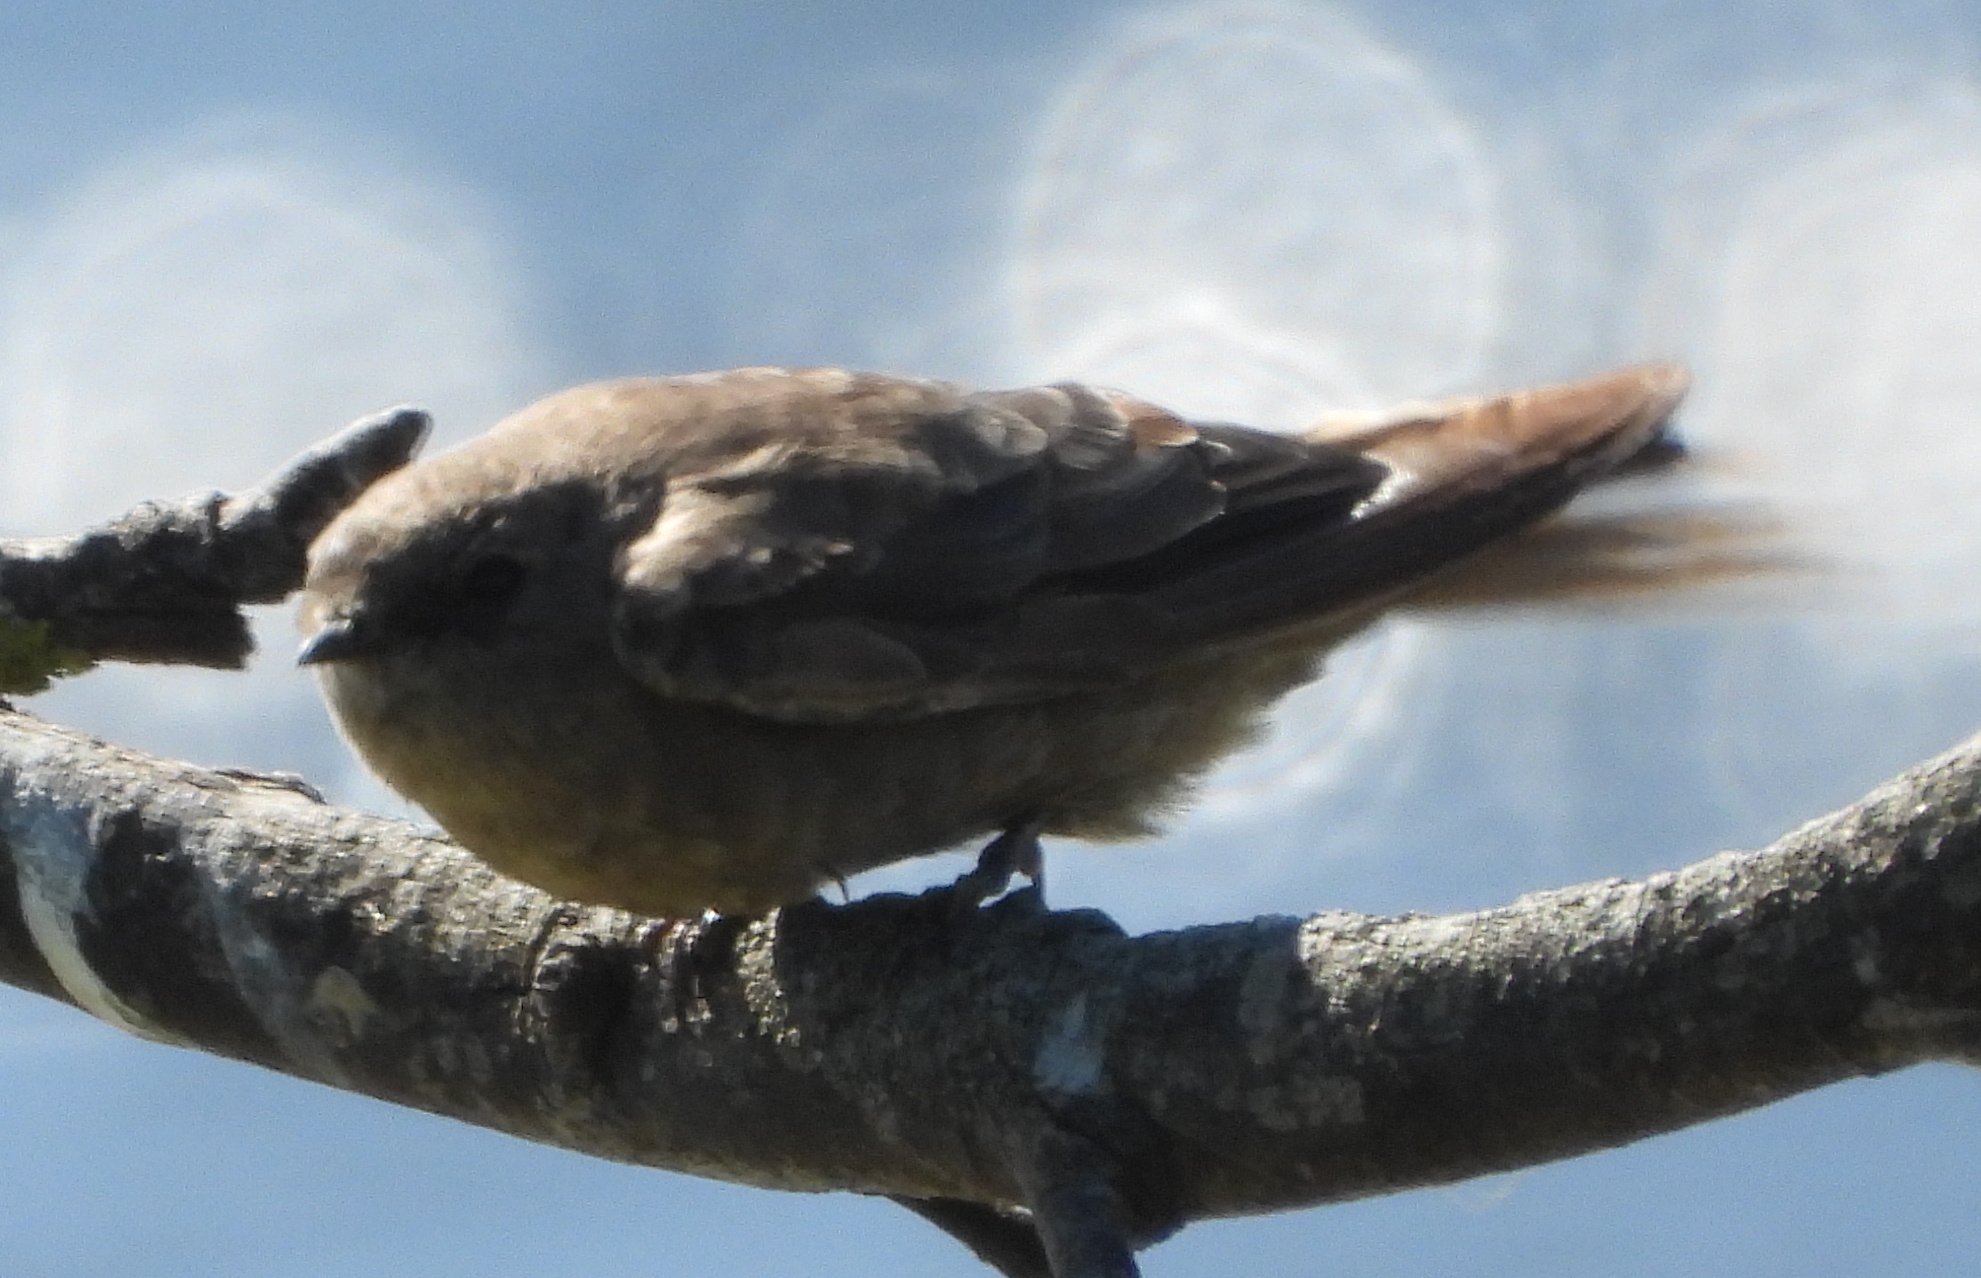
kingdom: Animalia
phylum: Chordata
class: Aves
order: Passeriformes
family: Hirundinidae
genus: Ptyonoprogne
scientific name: Ptyonoprogne fuligula
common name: Rock martin
